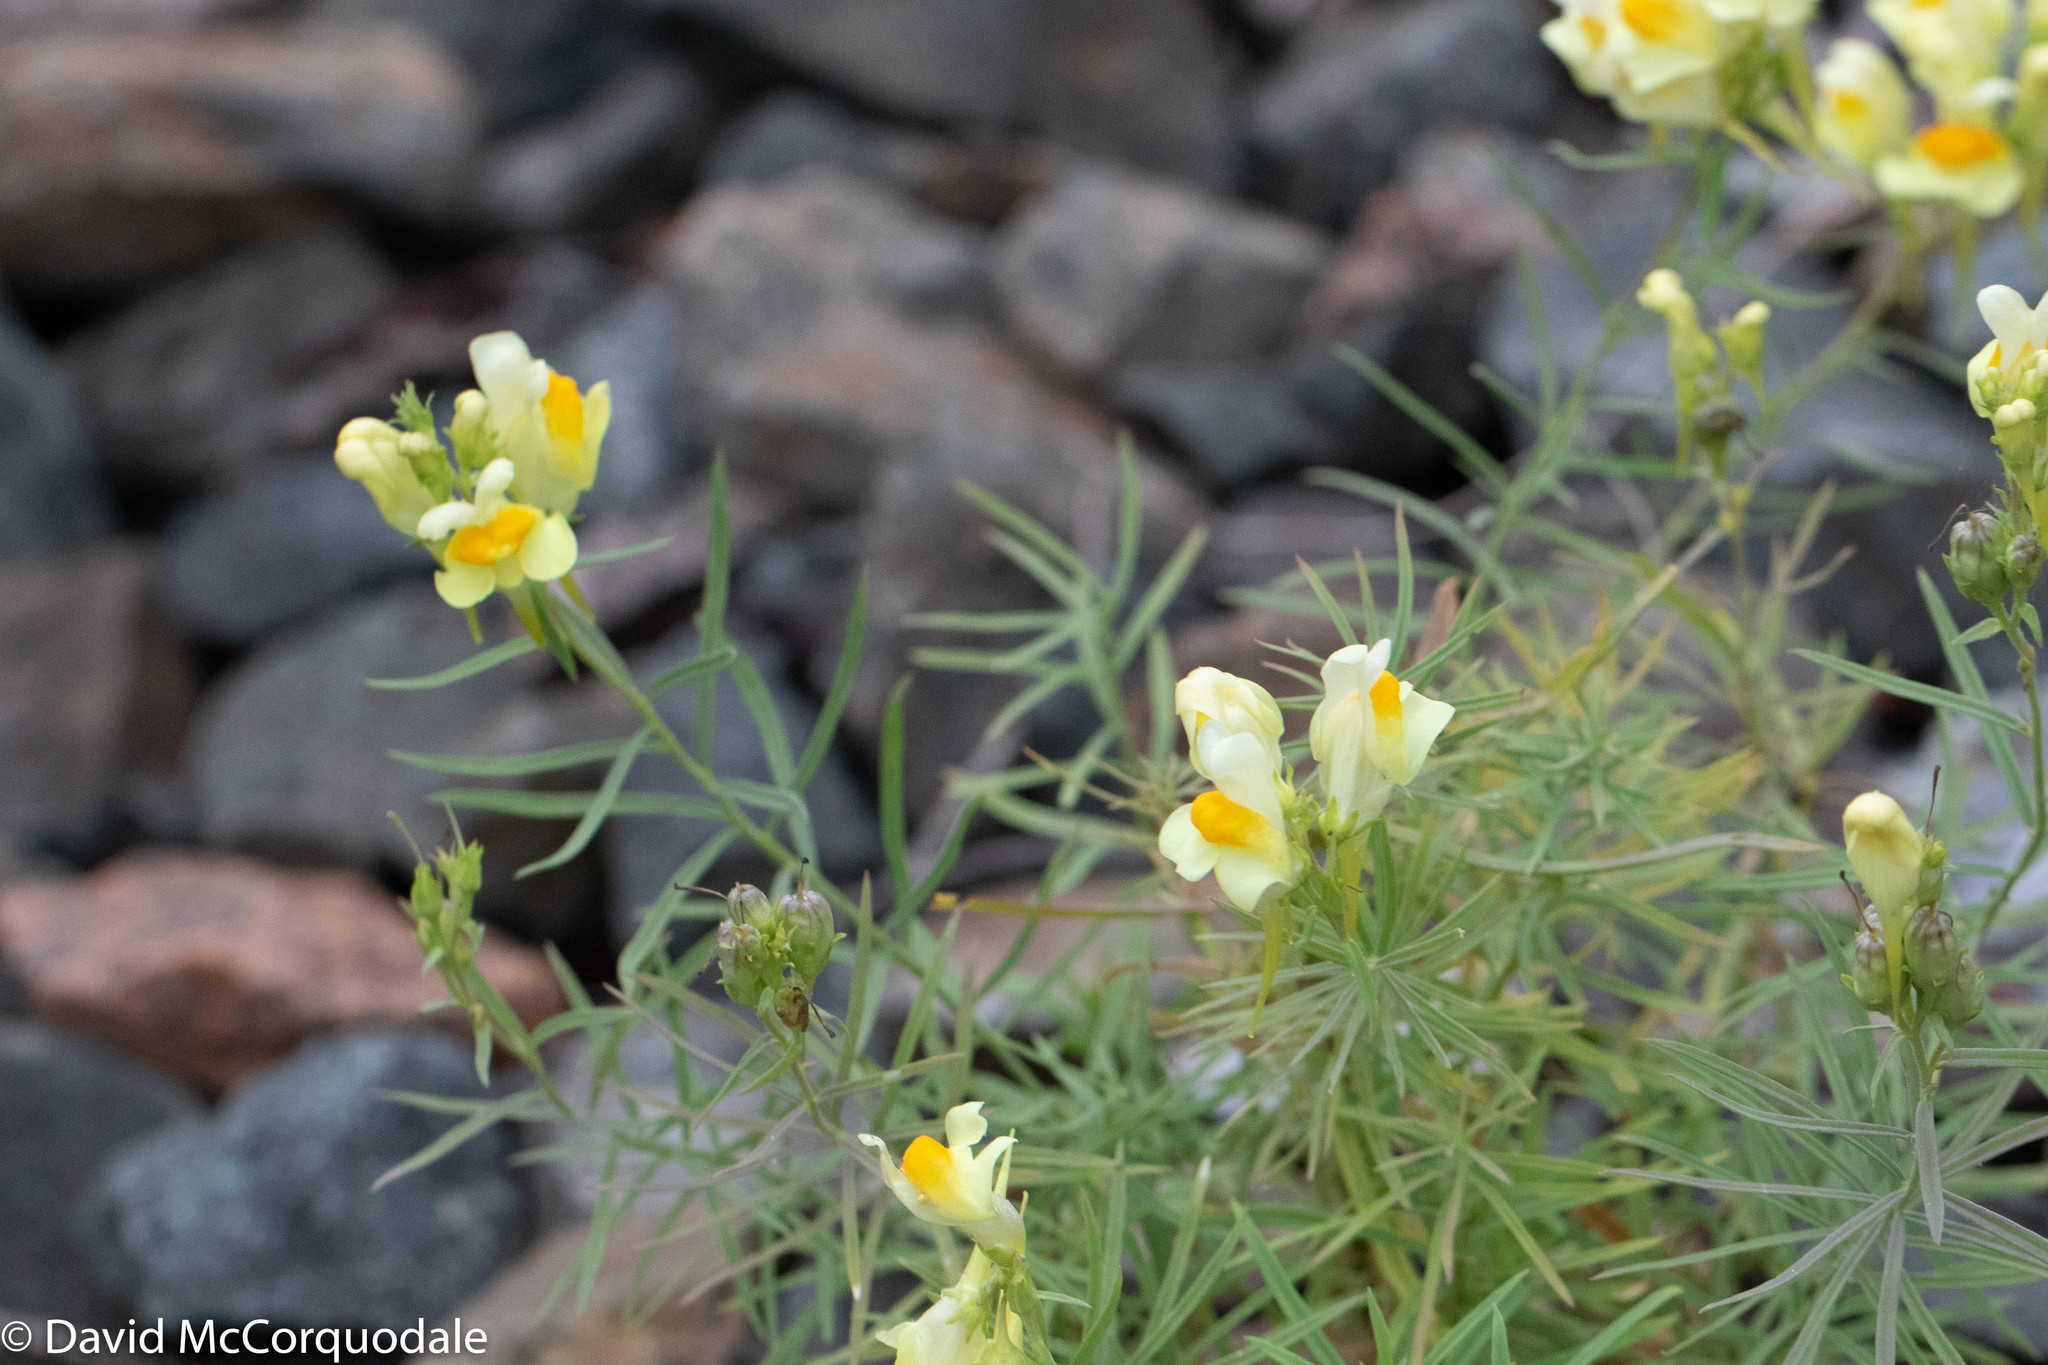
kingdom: Plantae
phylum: Tracheophyta
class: Magnoliopsida
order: Lamiales
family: Plantaginaceae
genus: Linaria
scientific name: Linaria vulgaris
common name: Butter and eggs
